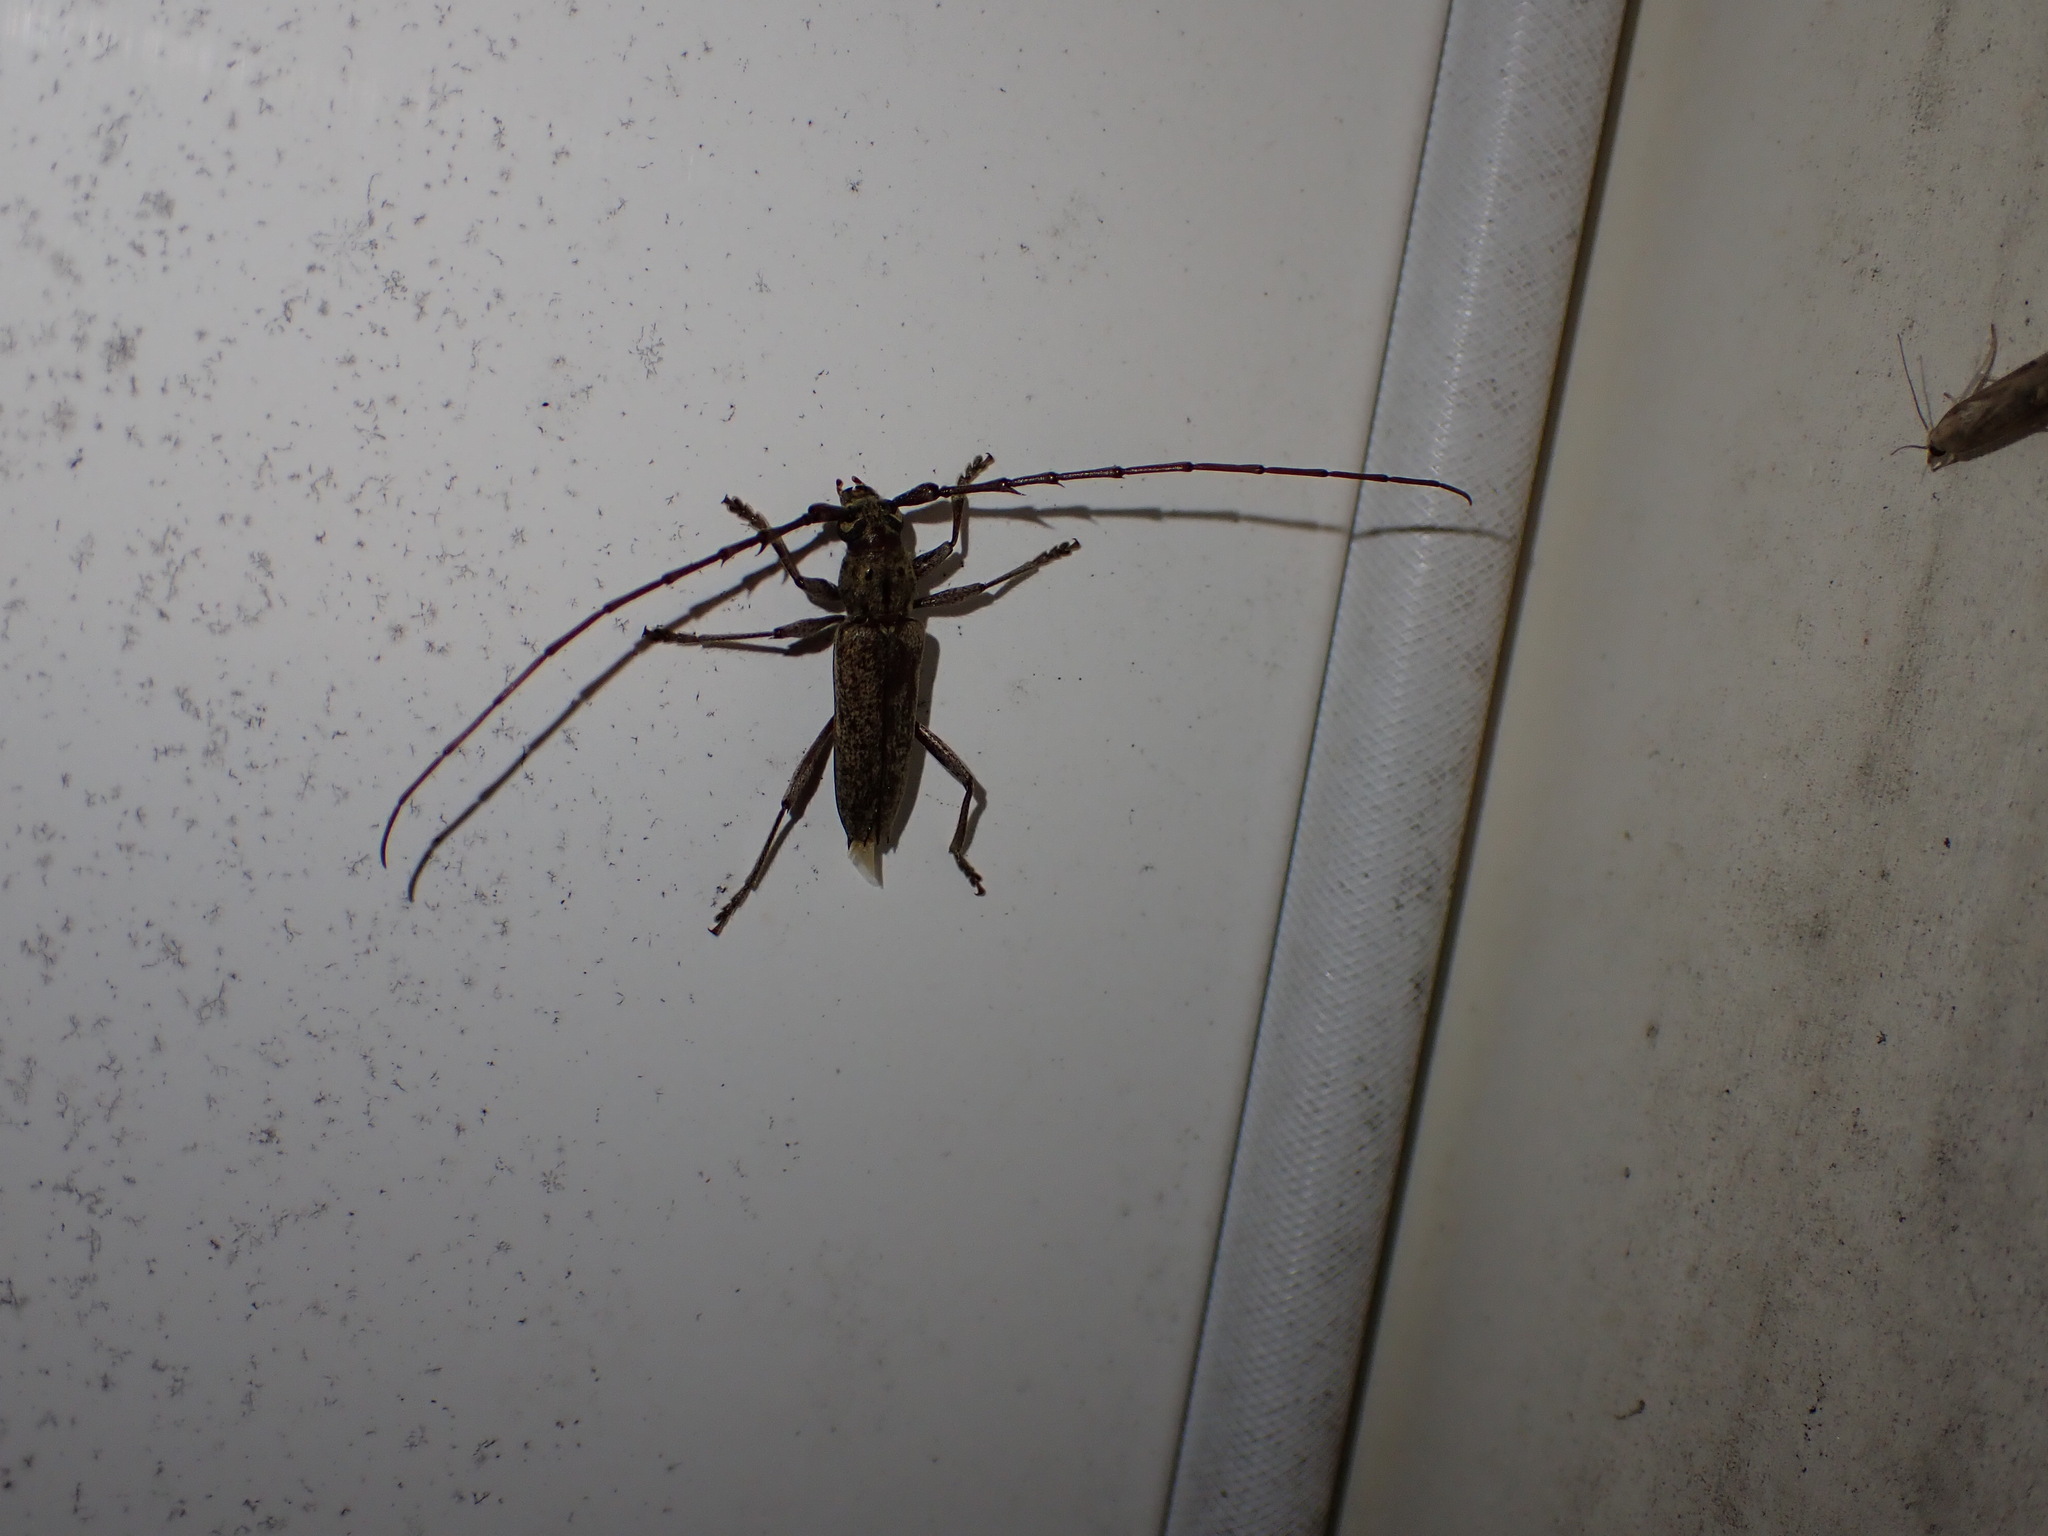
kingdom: Animalia
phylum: Arthropoda
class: Insecta
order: Coleoptera
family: Cerambycidae
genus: Elaphidion
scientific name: Elaphidion mucronatum
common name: Spined oak borer
